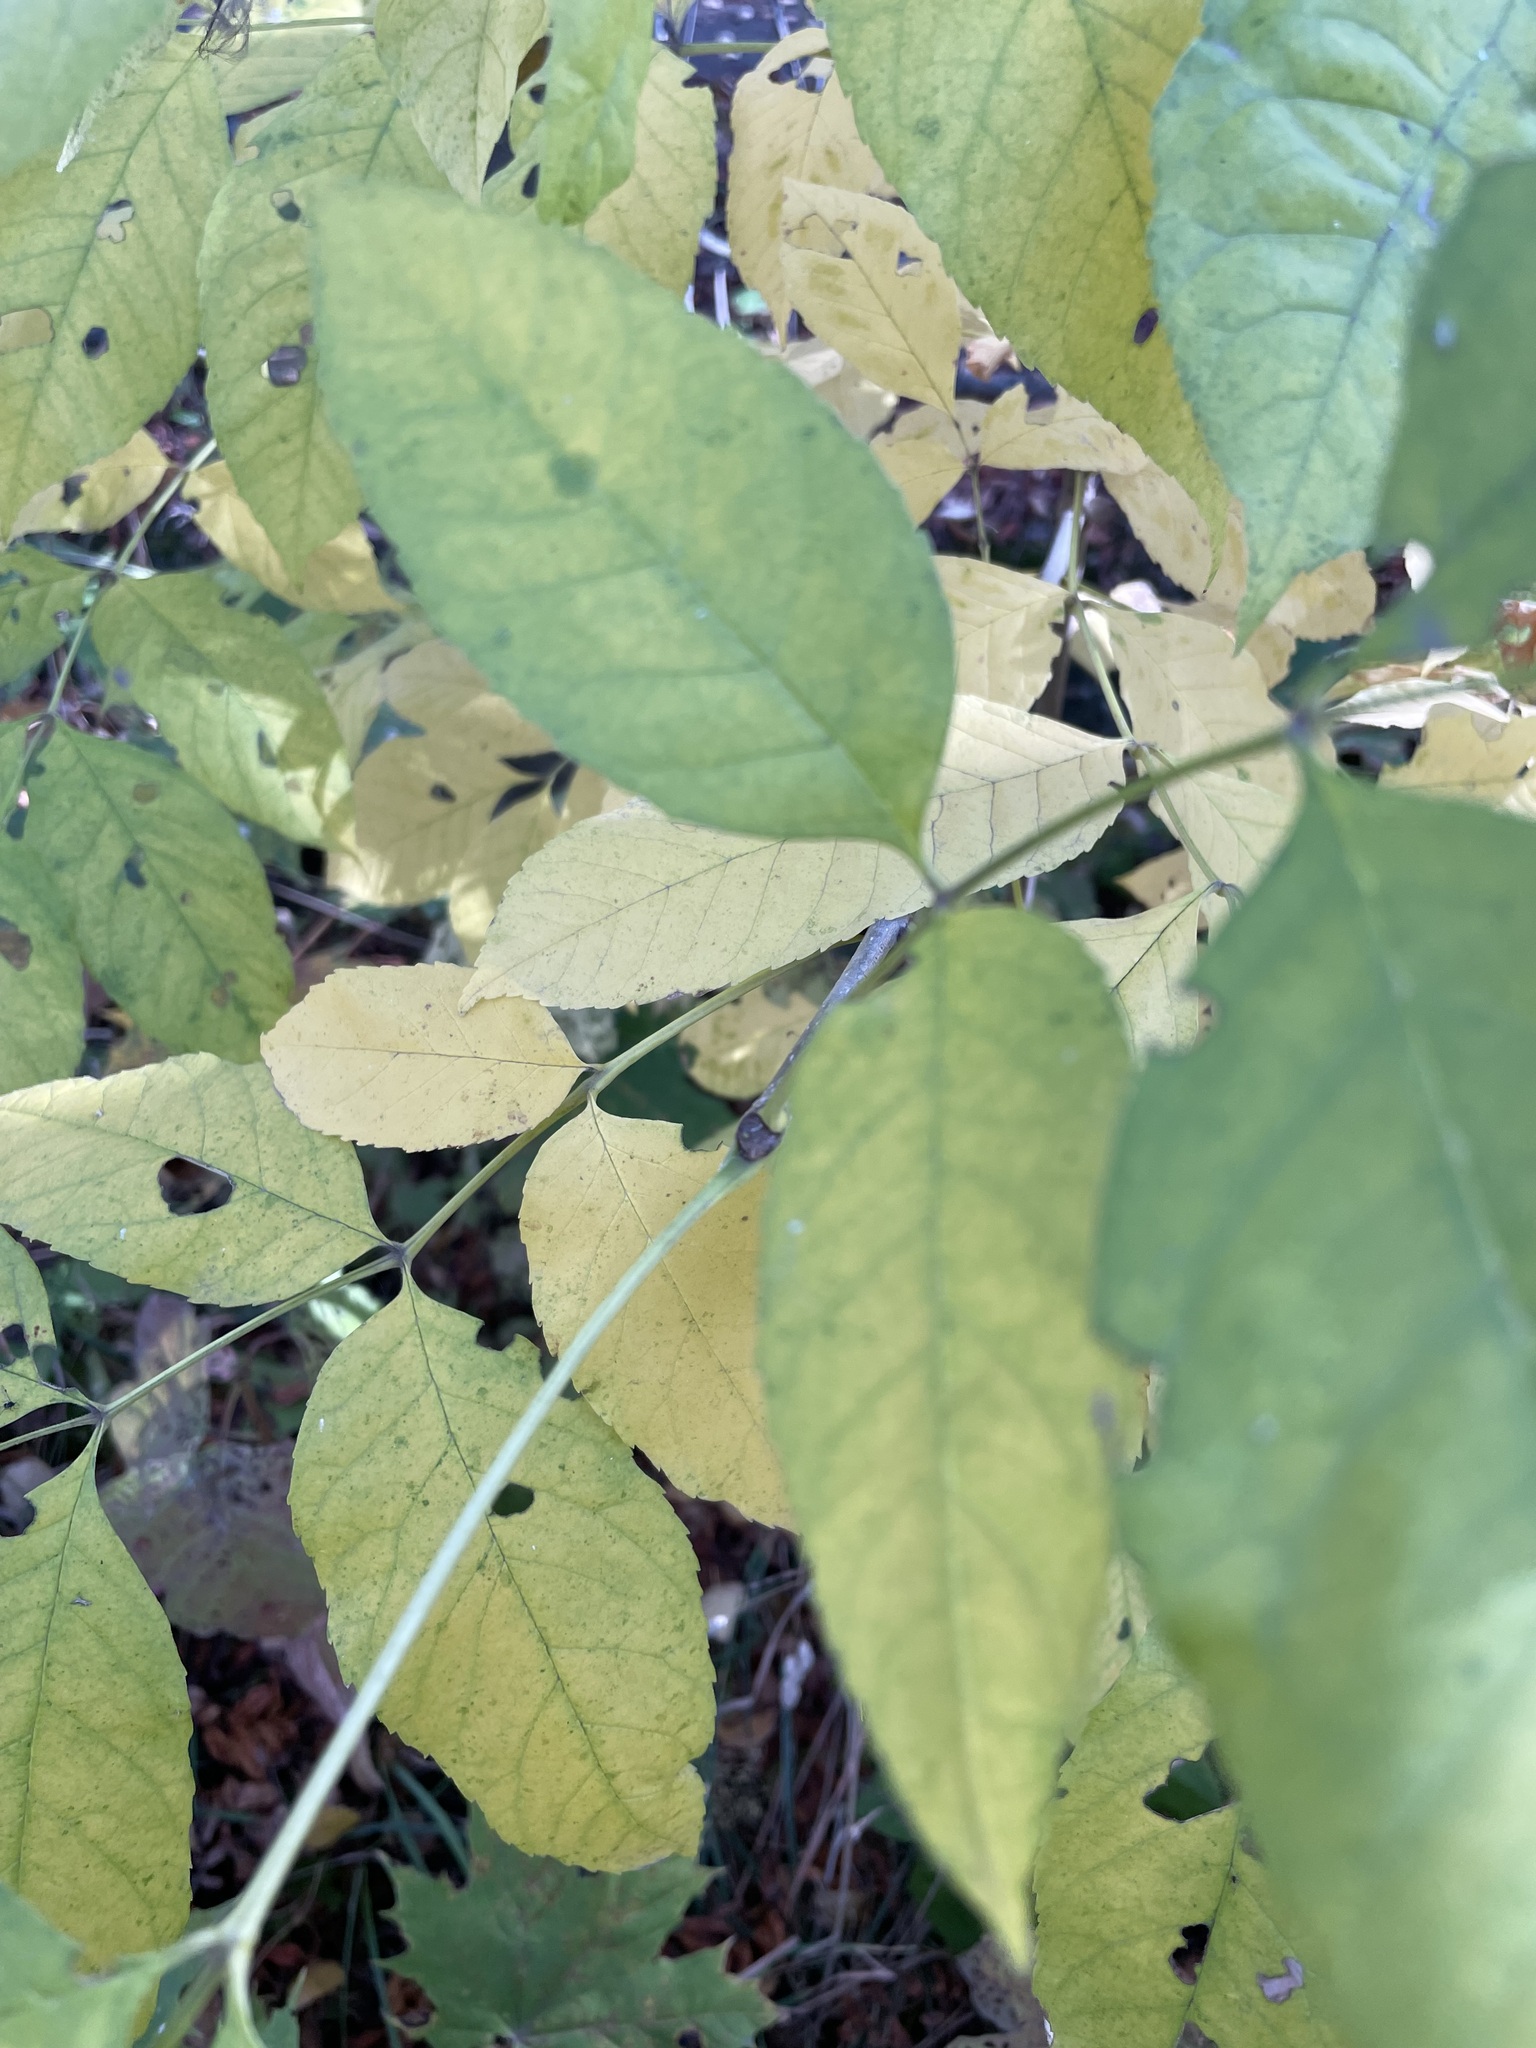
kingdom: Plantae
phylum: Tracheophyta
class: Magnoliopsida
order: Lamiales
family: Oleaceae
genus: Fraxinus
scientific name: Fraxinus pennsylvanica
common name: Green ash
